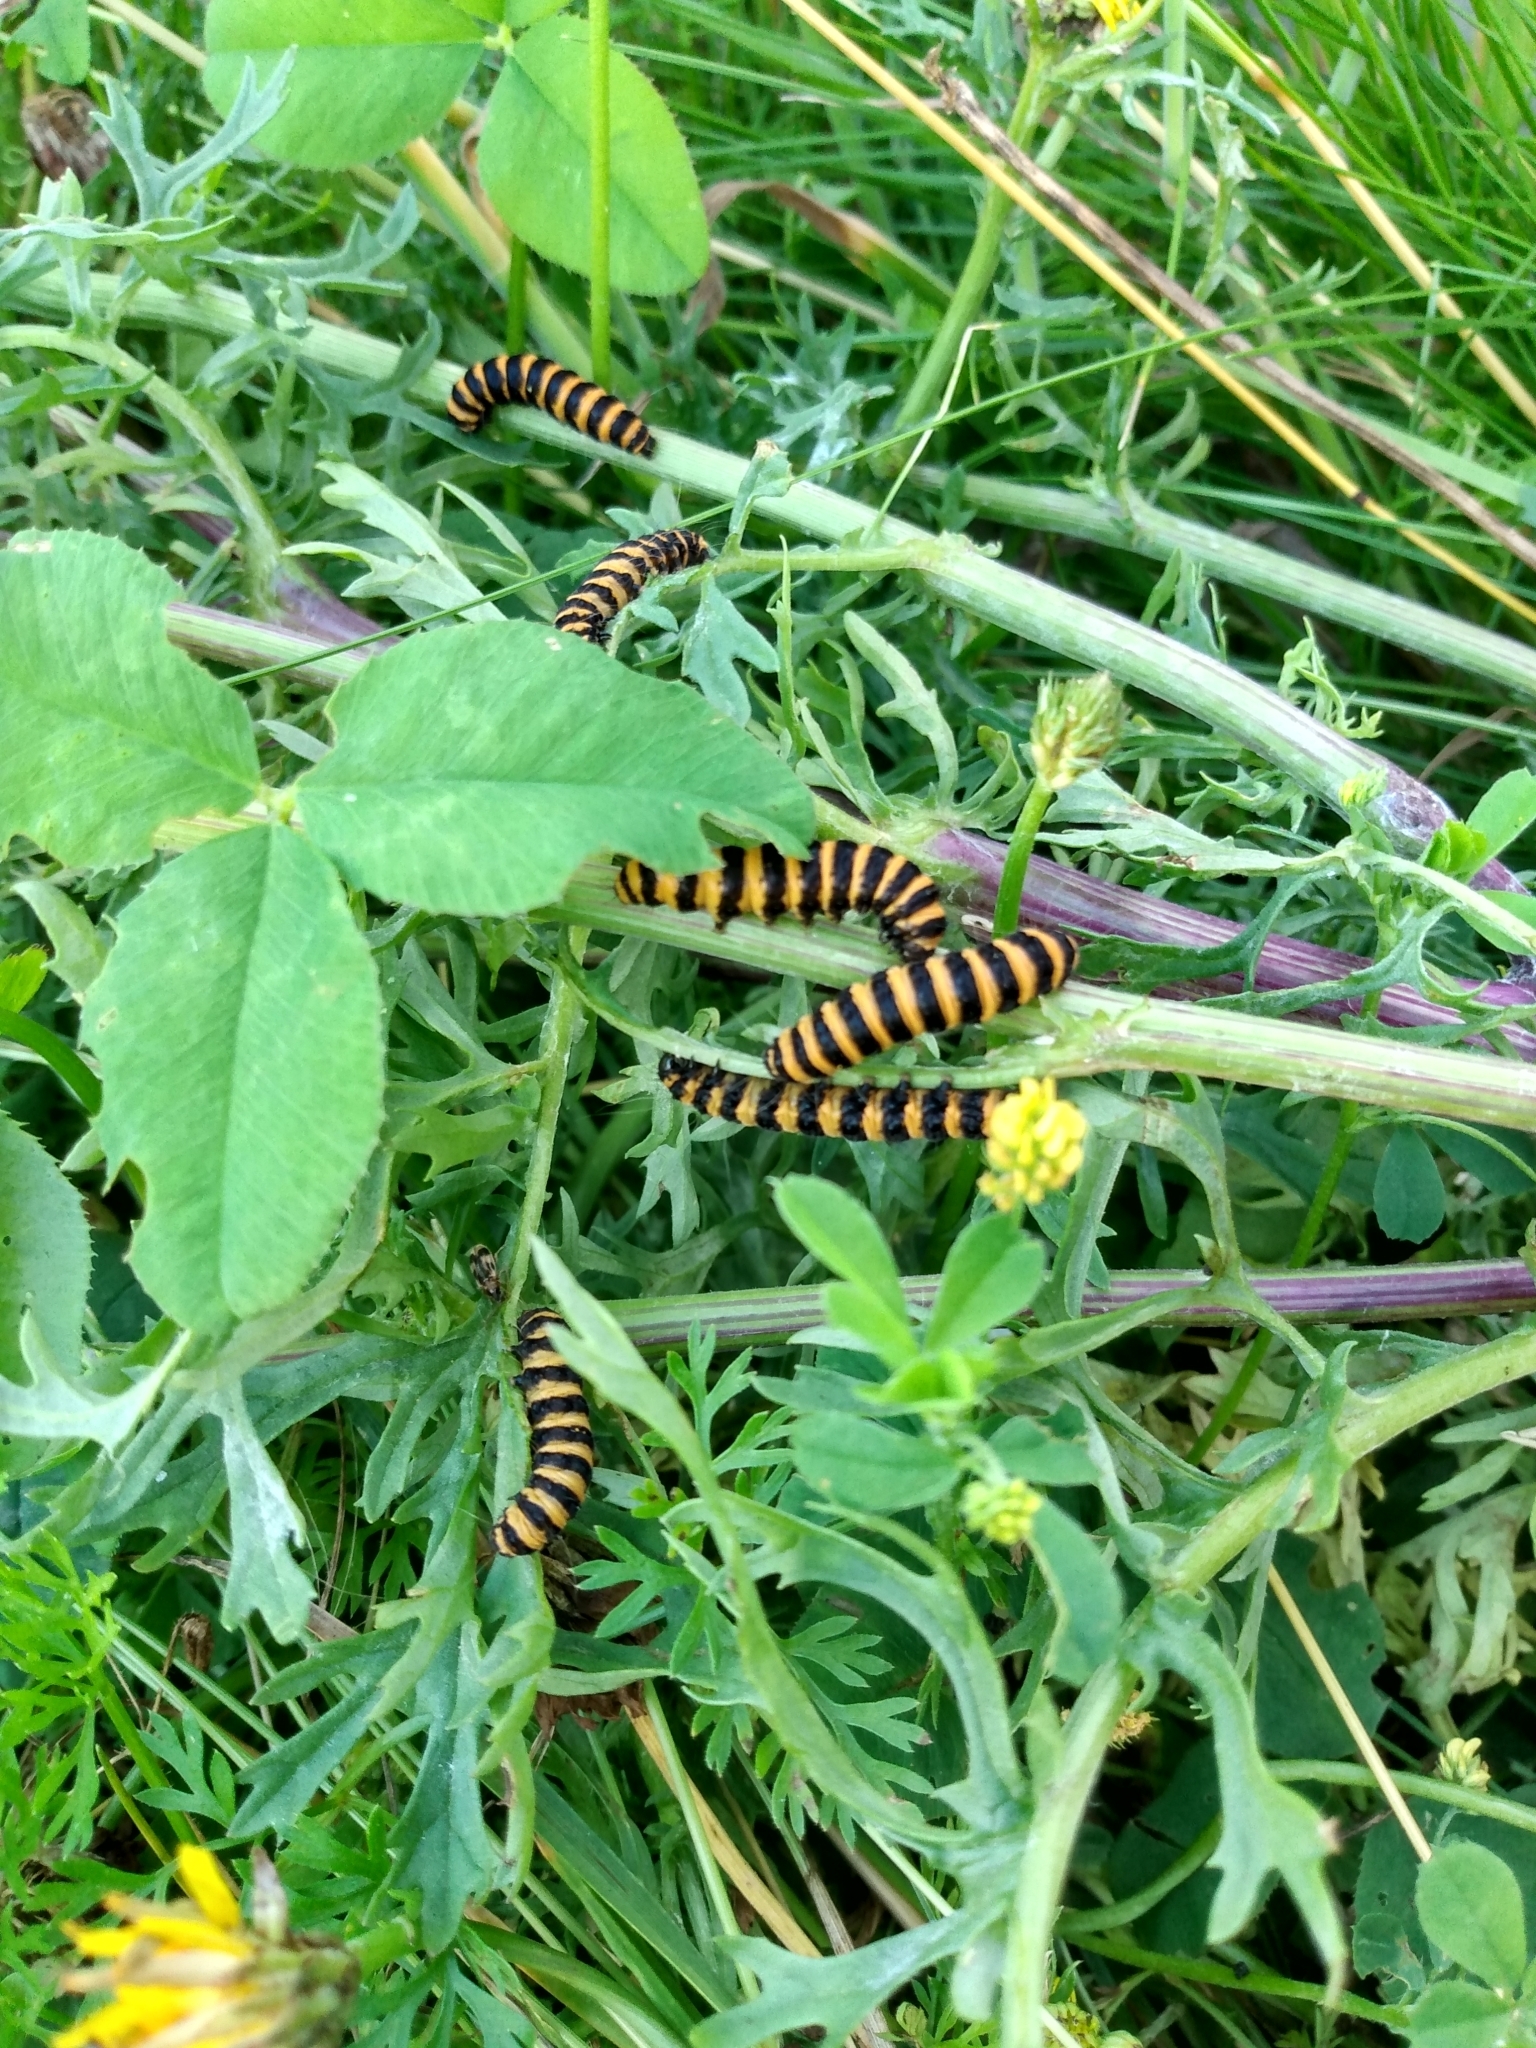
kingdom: Animalia
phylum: Arthropoda
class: Insecta
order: Lepidoptera
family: Erebidae
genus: Tyria
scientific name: Tyria jacobaeae
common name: Cinnabar
